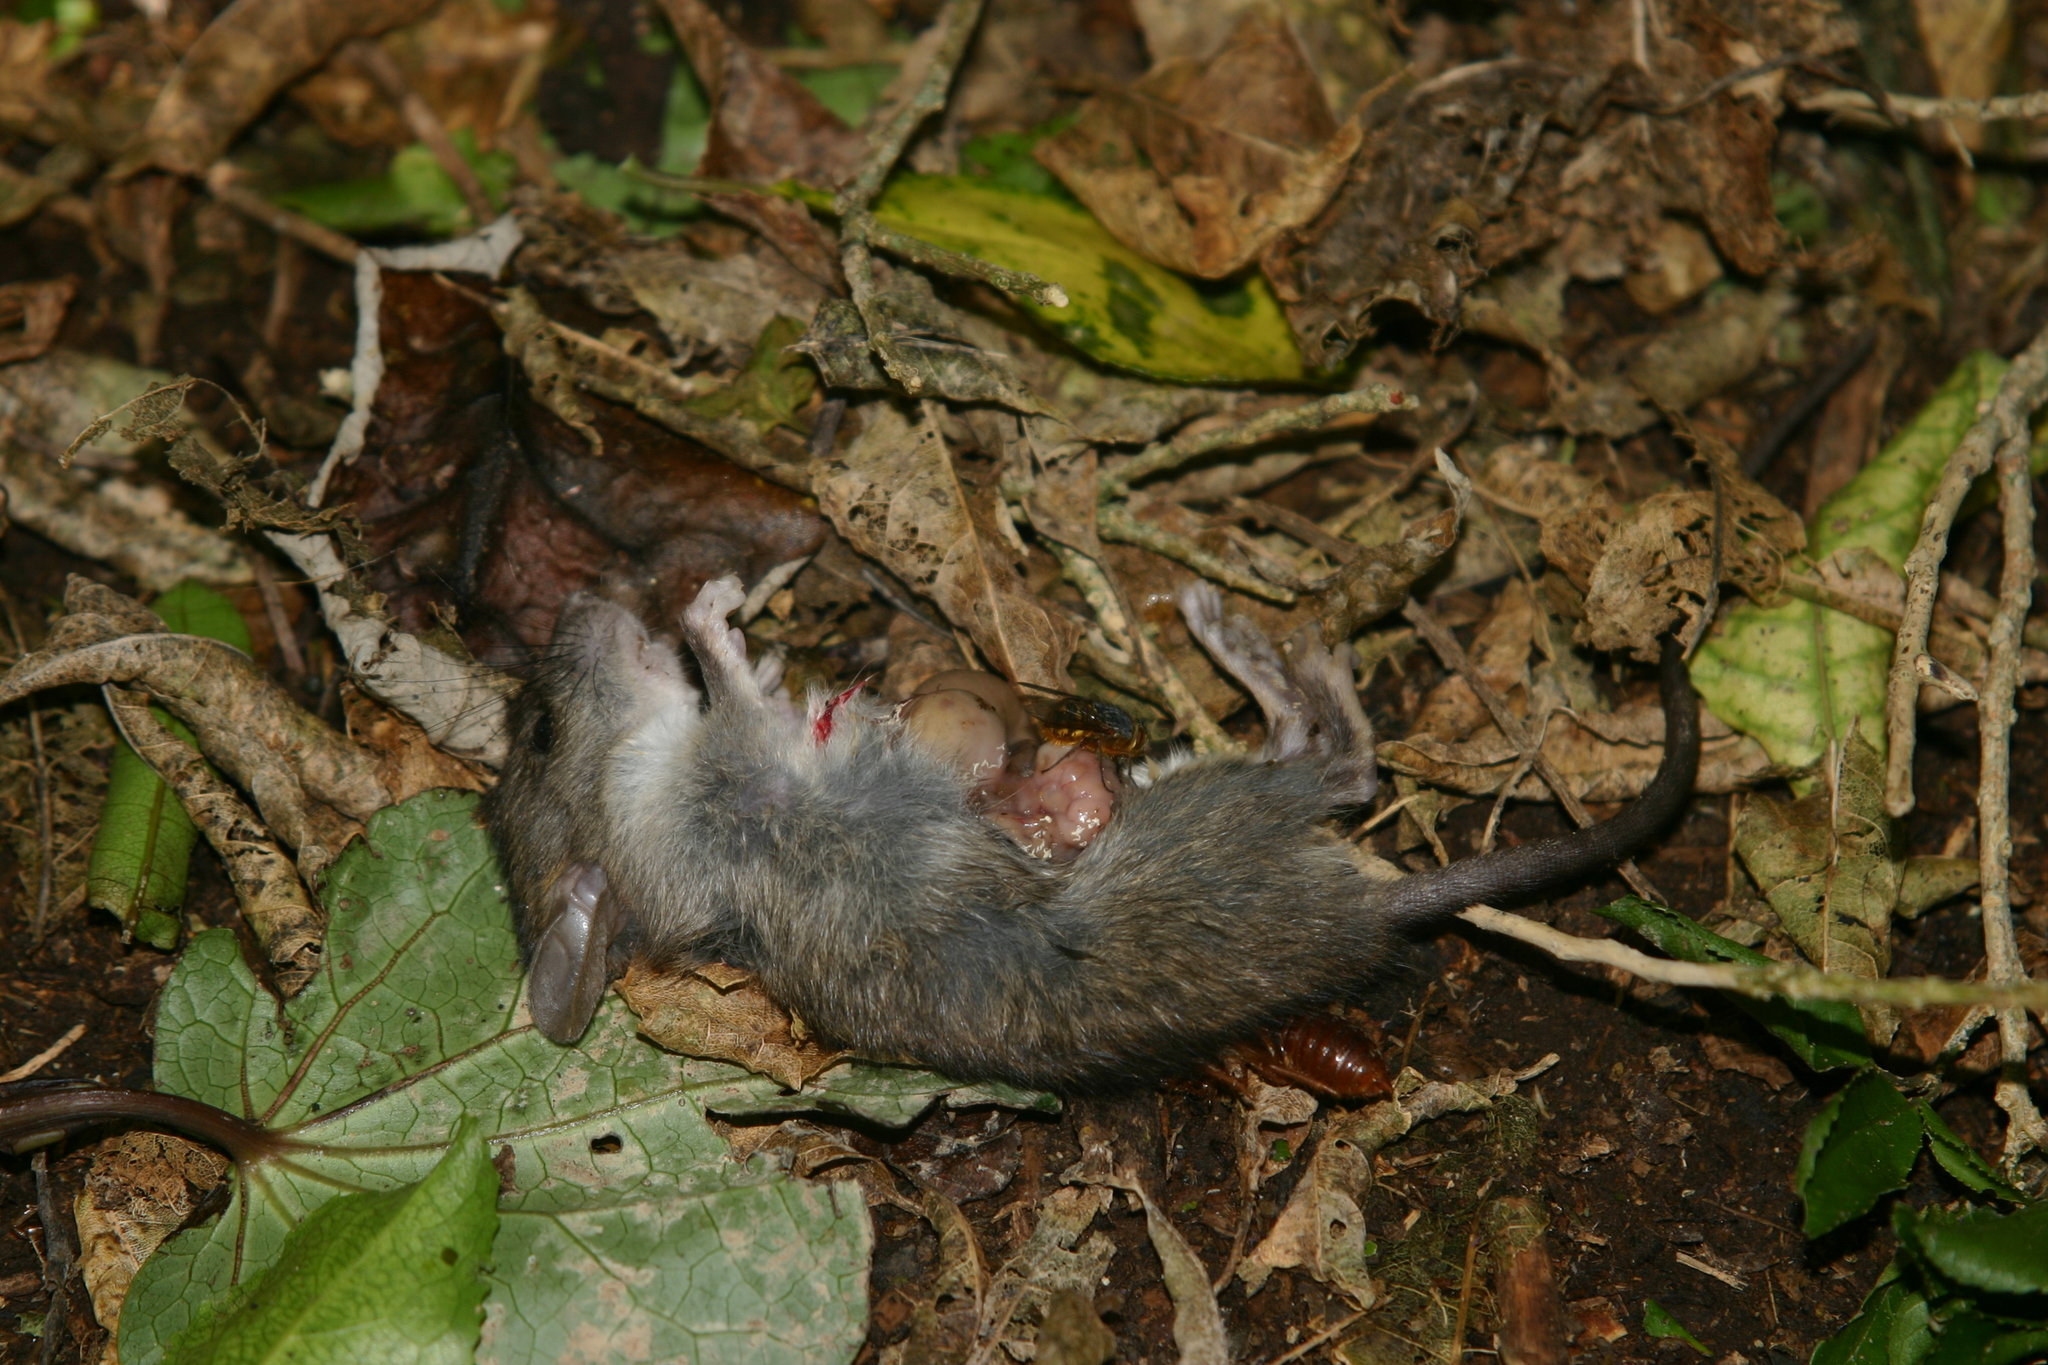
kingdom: Animalia
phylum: Chordata
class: Mammalia
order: Rodentia
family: Muridae
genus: Rattus
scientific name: Rattus rattus
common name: Black rat
